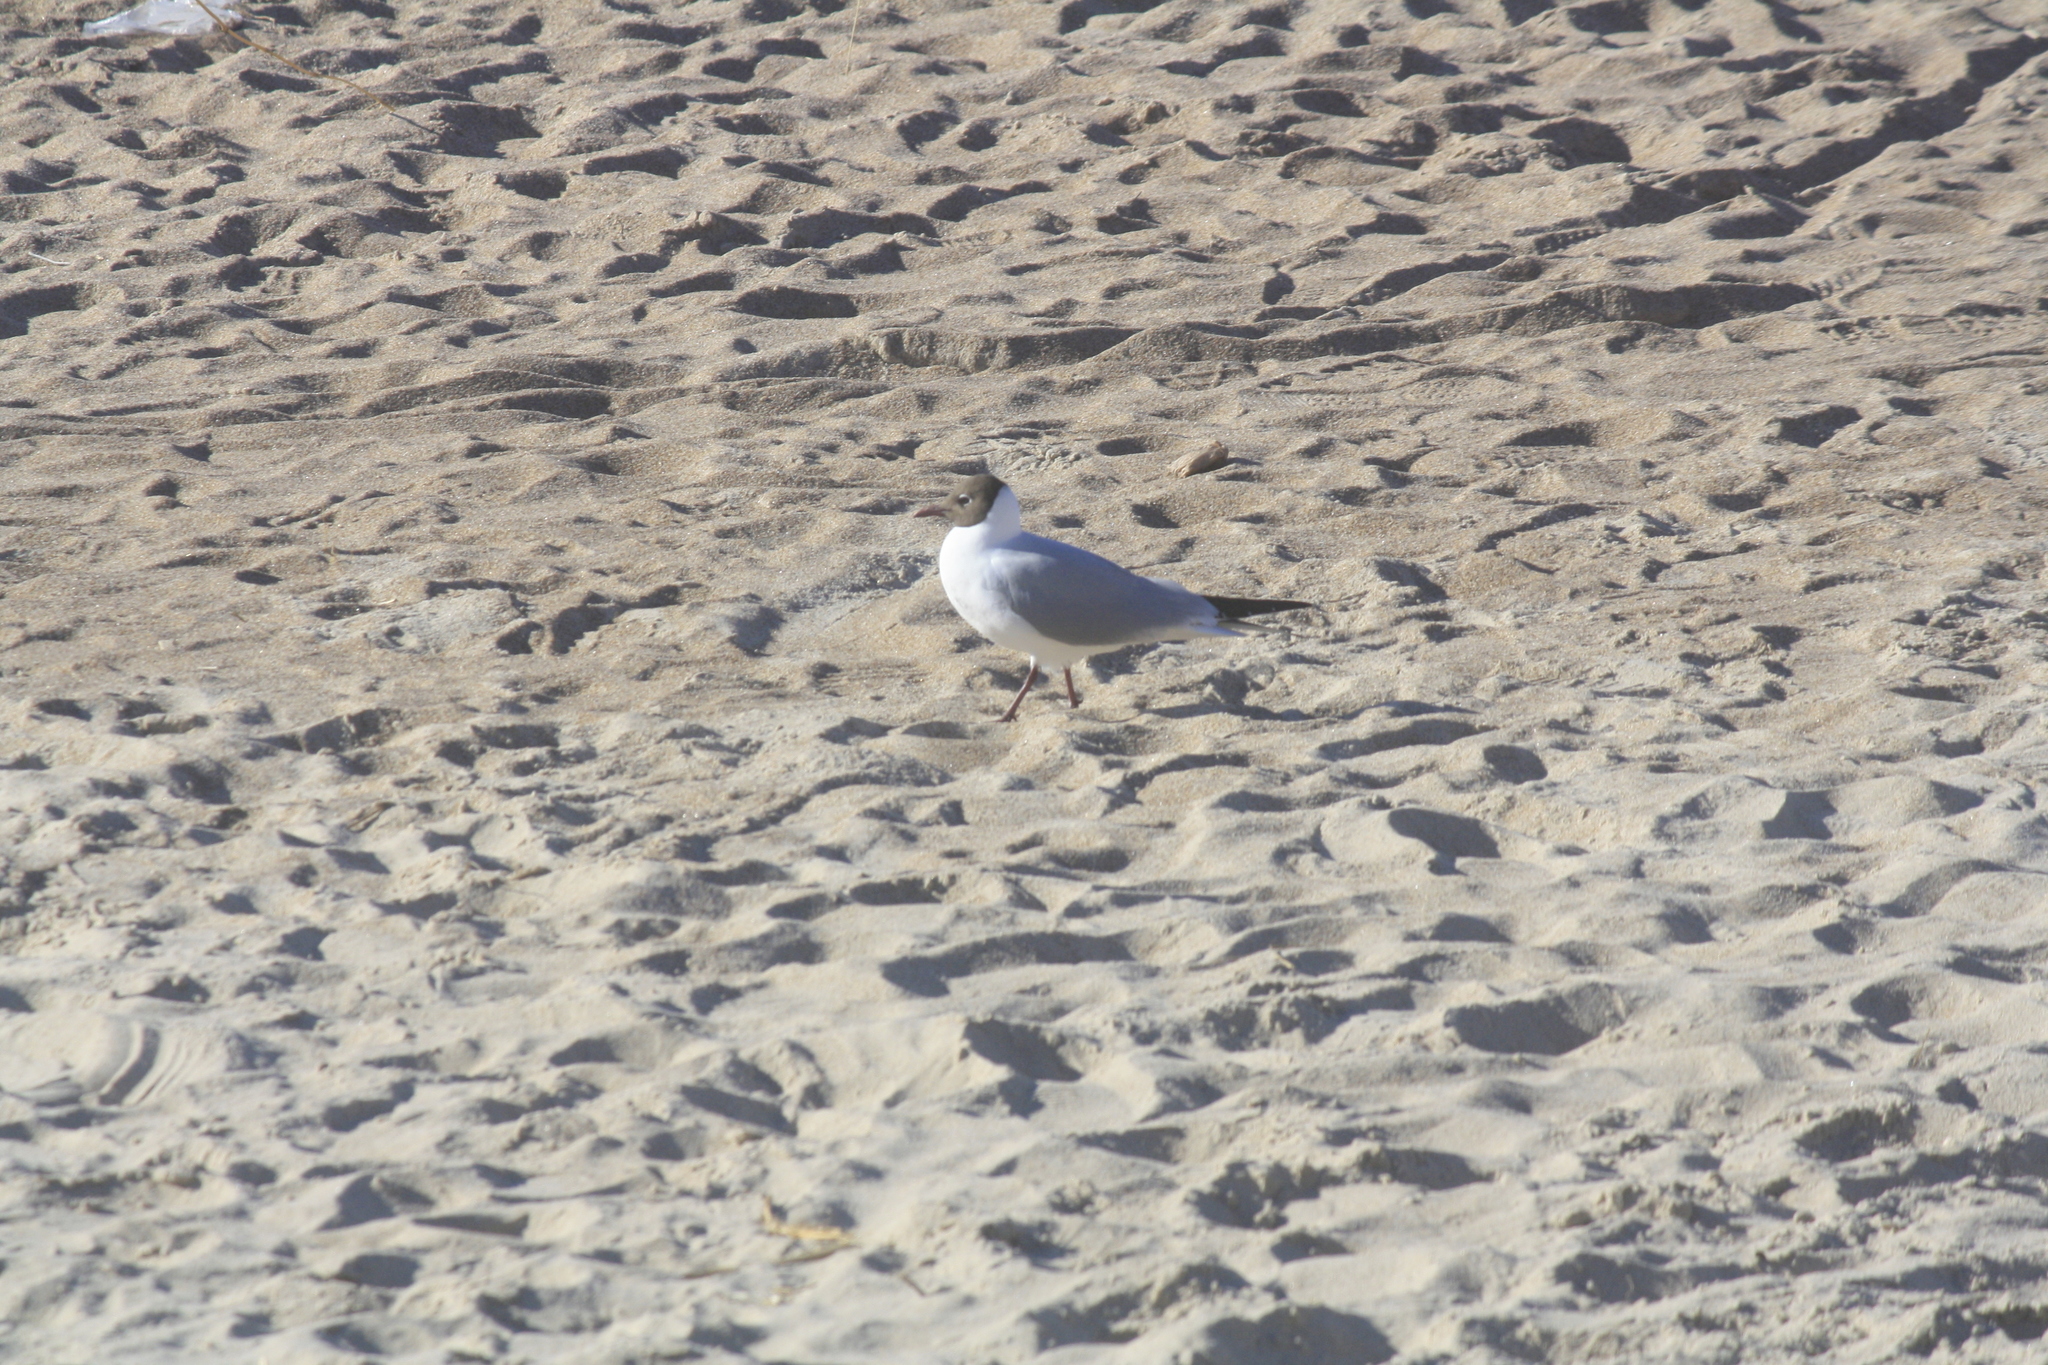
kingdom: Animalia
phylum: Chordata
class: Aves
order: Charadriiformes
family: Laridae
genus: Chroicocephalus
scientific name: Chroicocephalus ridibundus
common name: Black-headed gull
